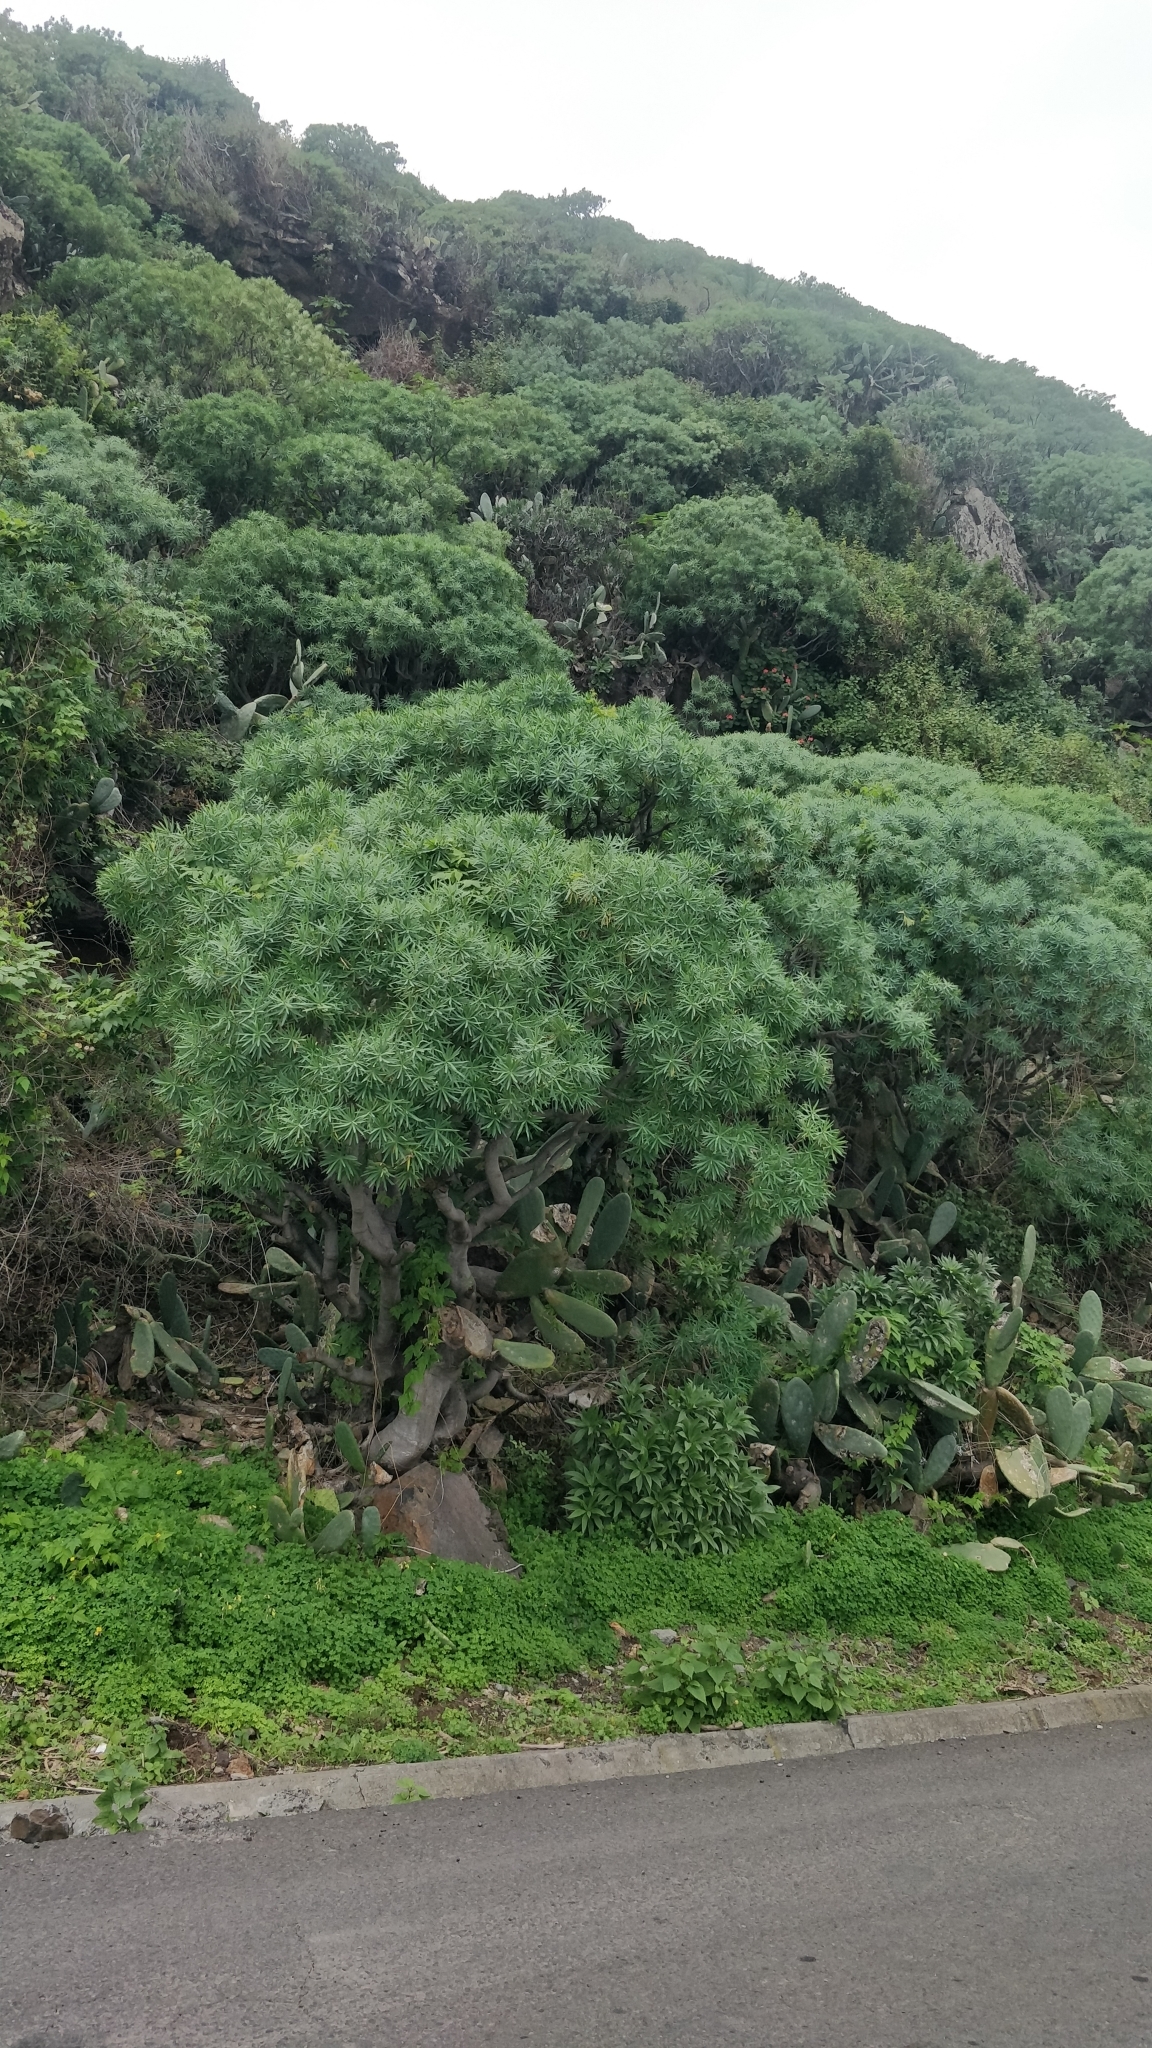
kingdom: Plantae
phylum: Tracheophyta
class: Magnoliopsida
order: Malpighiales
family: Euphorbiaceae
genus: Euphorbia
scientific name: Euphorbia piscatoria
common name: Fish-stunning spurge
